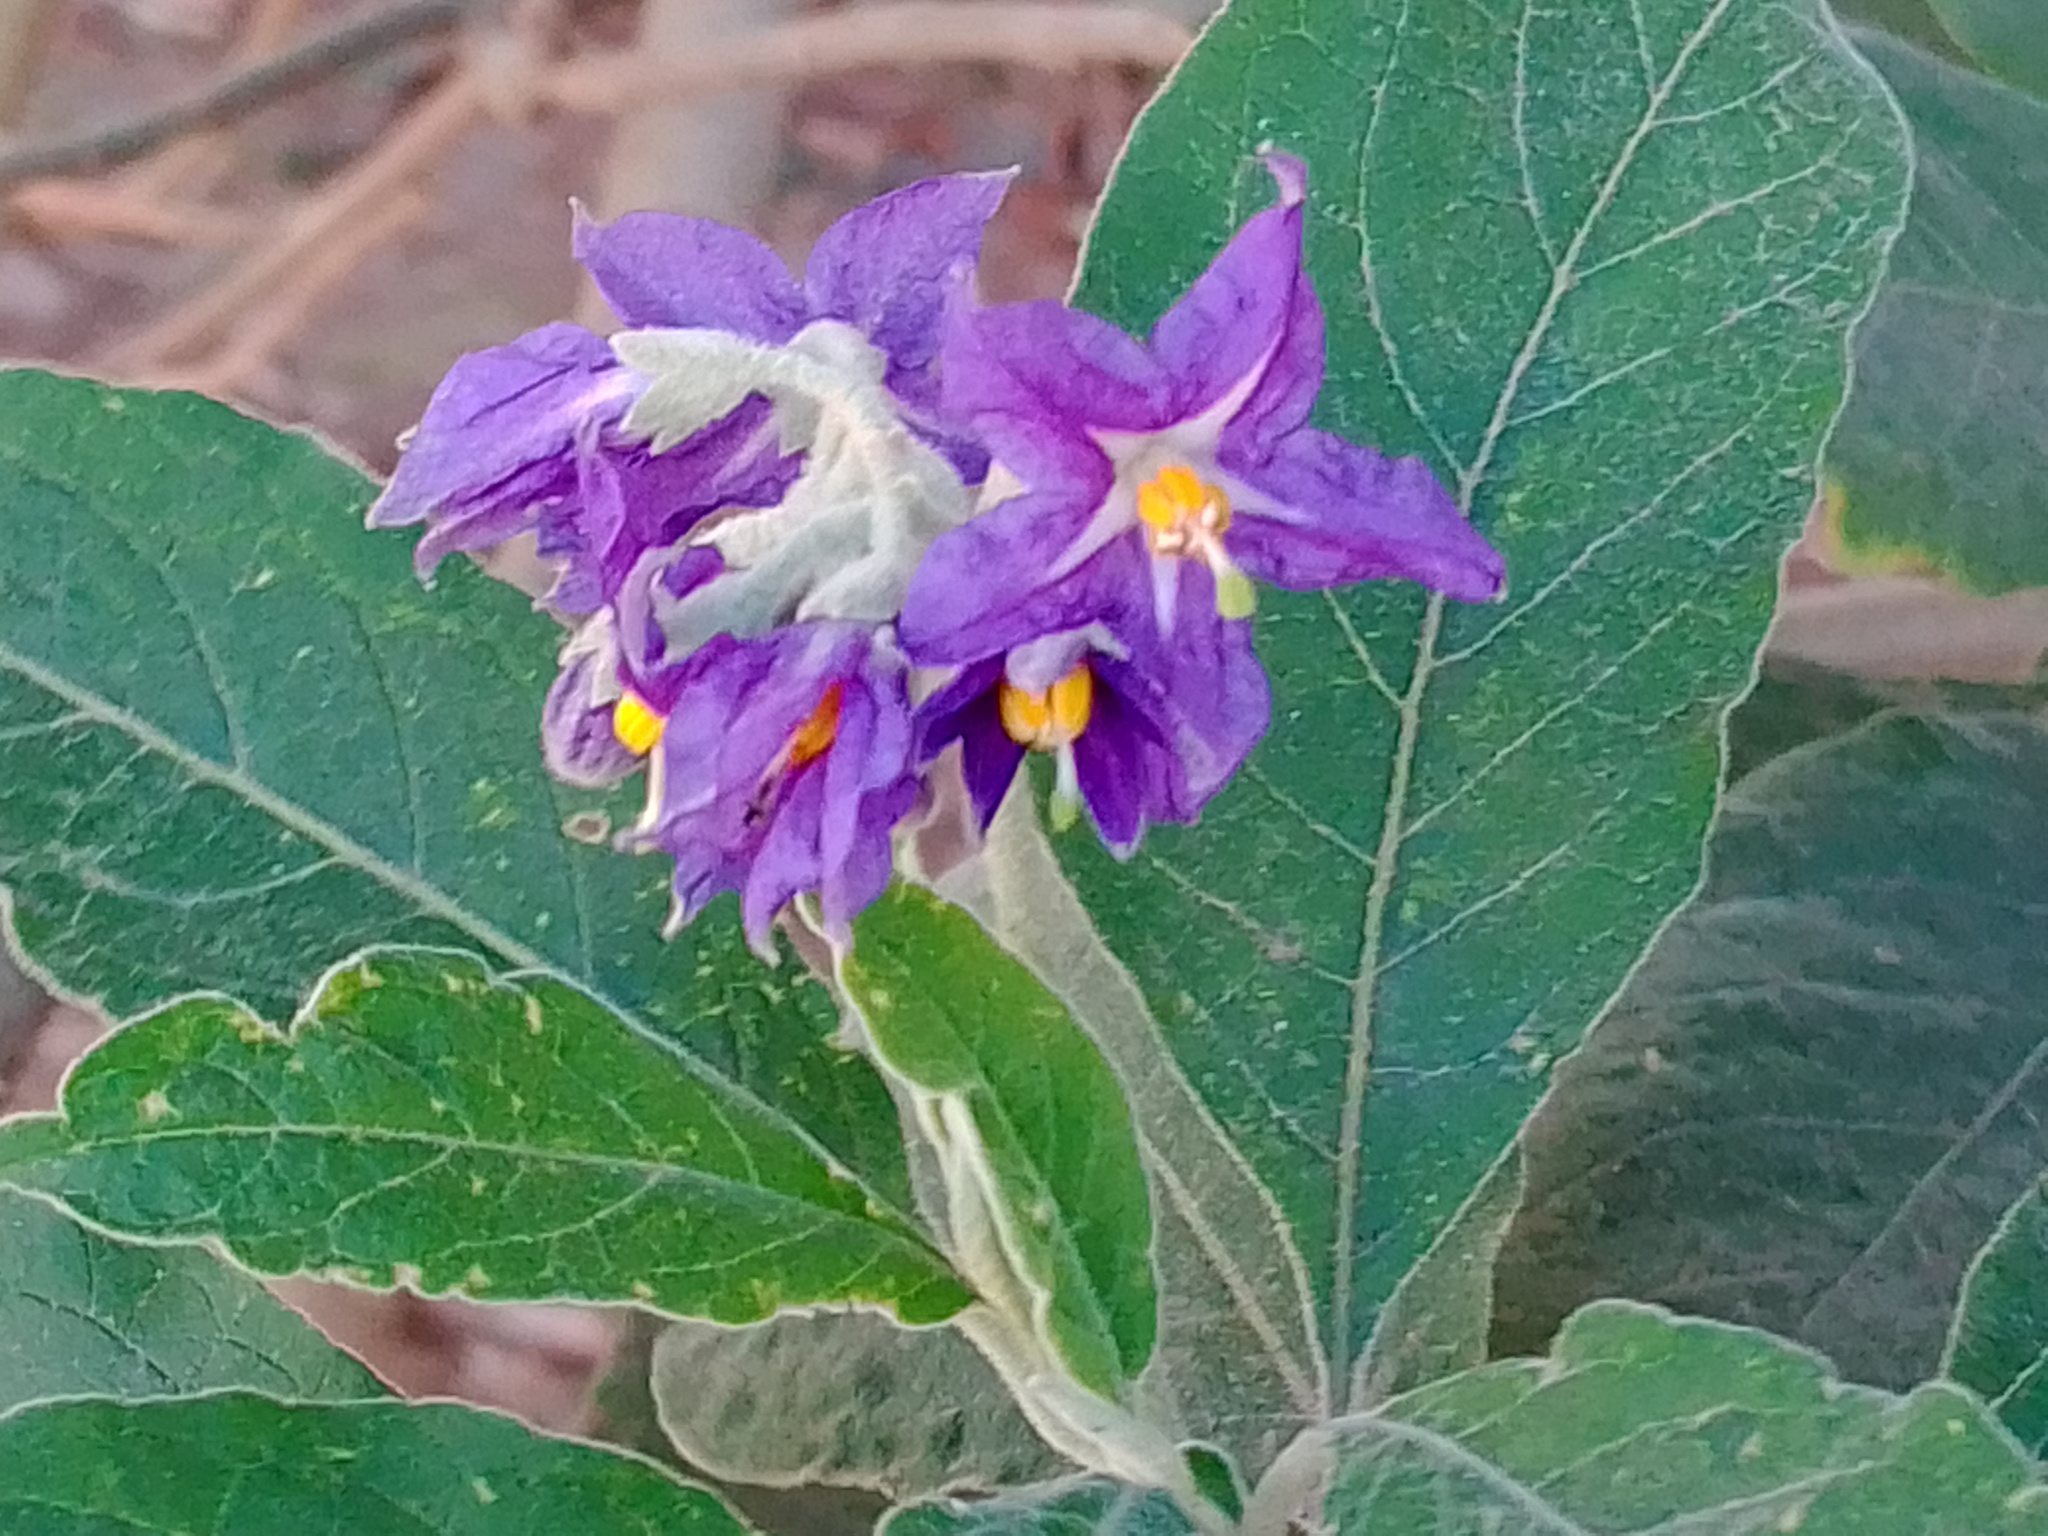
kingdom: Plantae
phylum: Tracheophyta
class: Magnoliopsida
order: Solanales
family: Solanaceae
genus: Solanum
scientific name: Solanum granulosoleprosum
